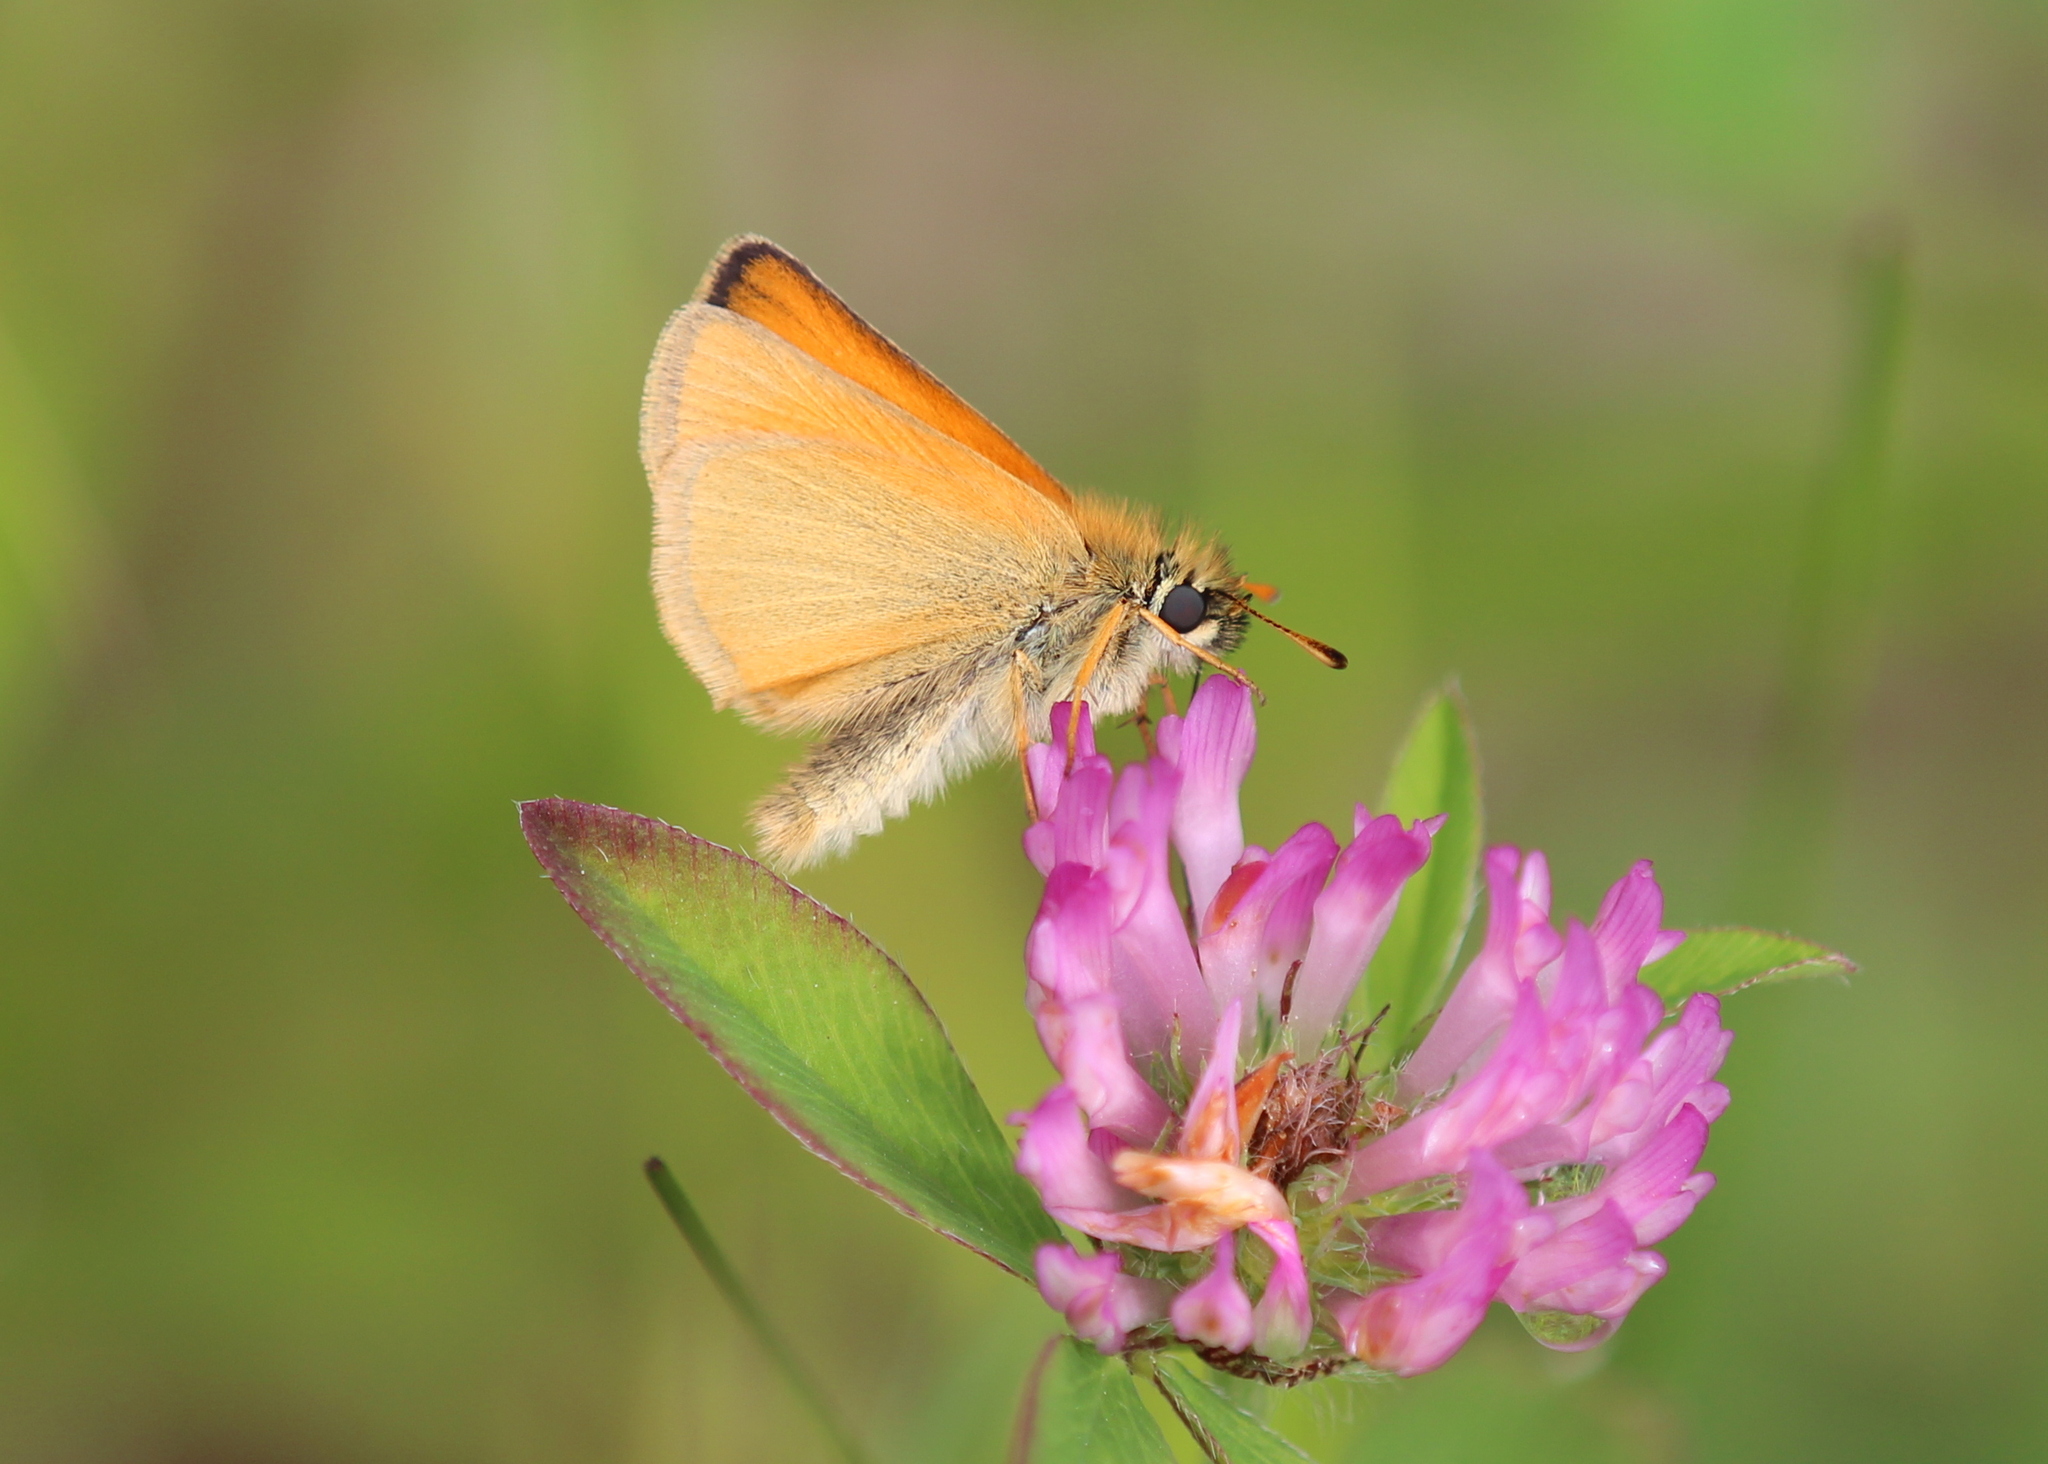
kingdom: Animalia
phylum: Arthropoda
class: Insecta
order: Lepidoptera
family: Hesperiidae
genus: Thymelicus
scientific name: Thymelicus lineola
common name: Essex skipper
